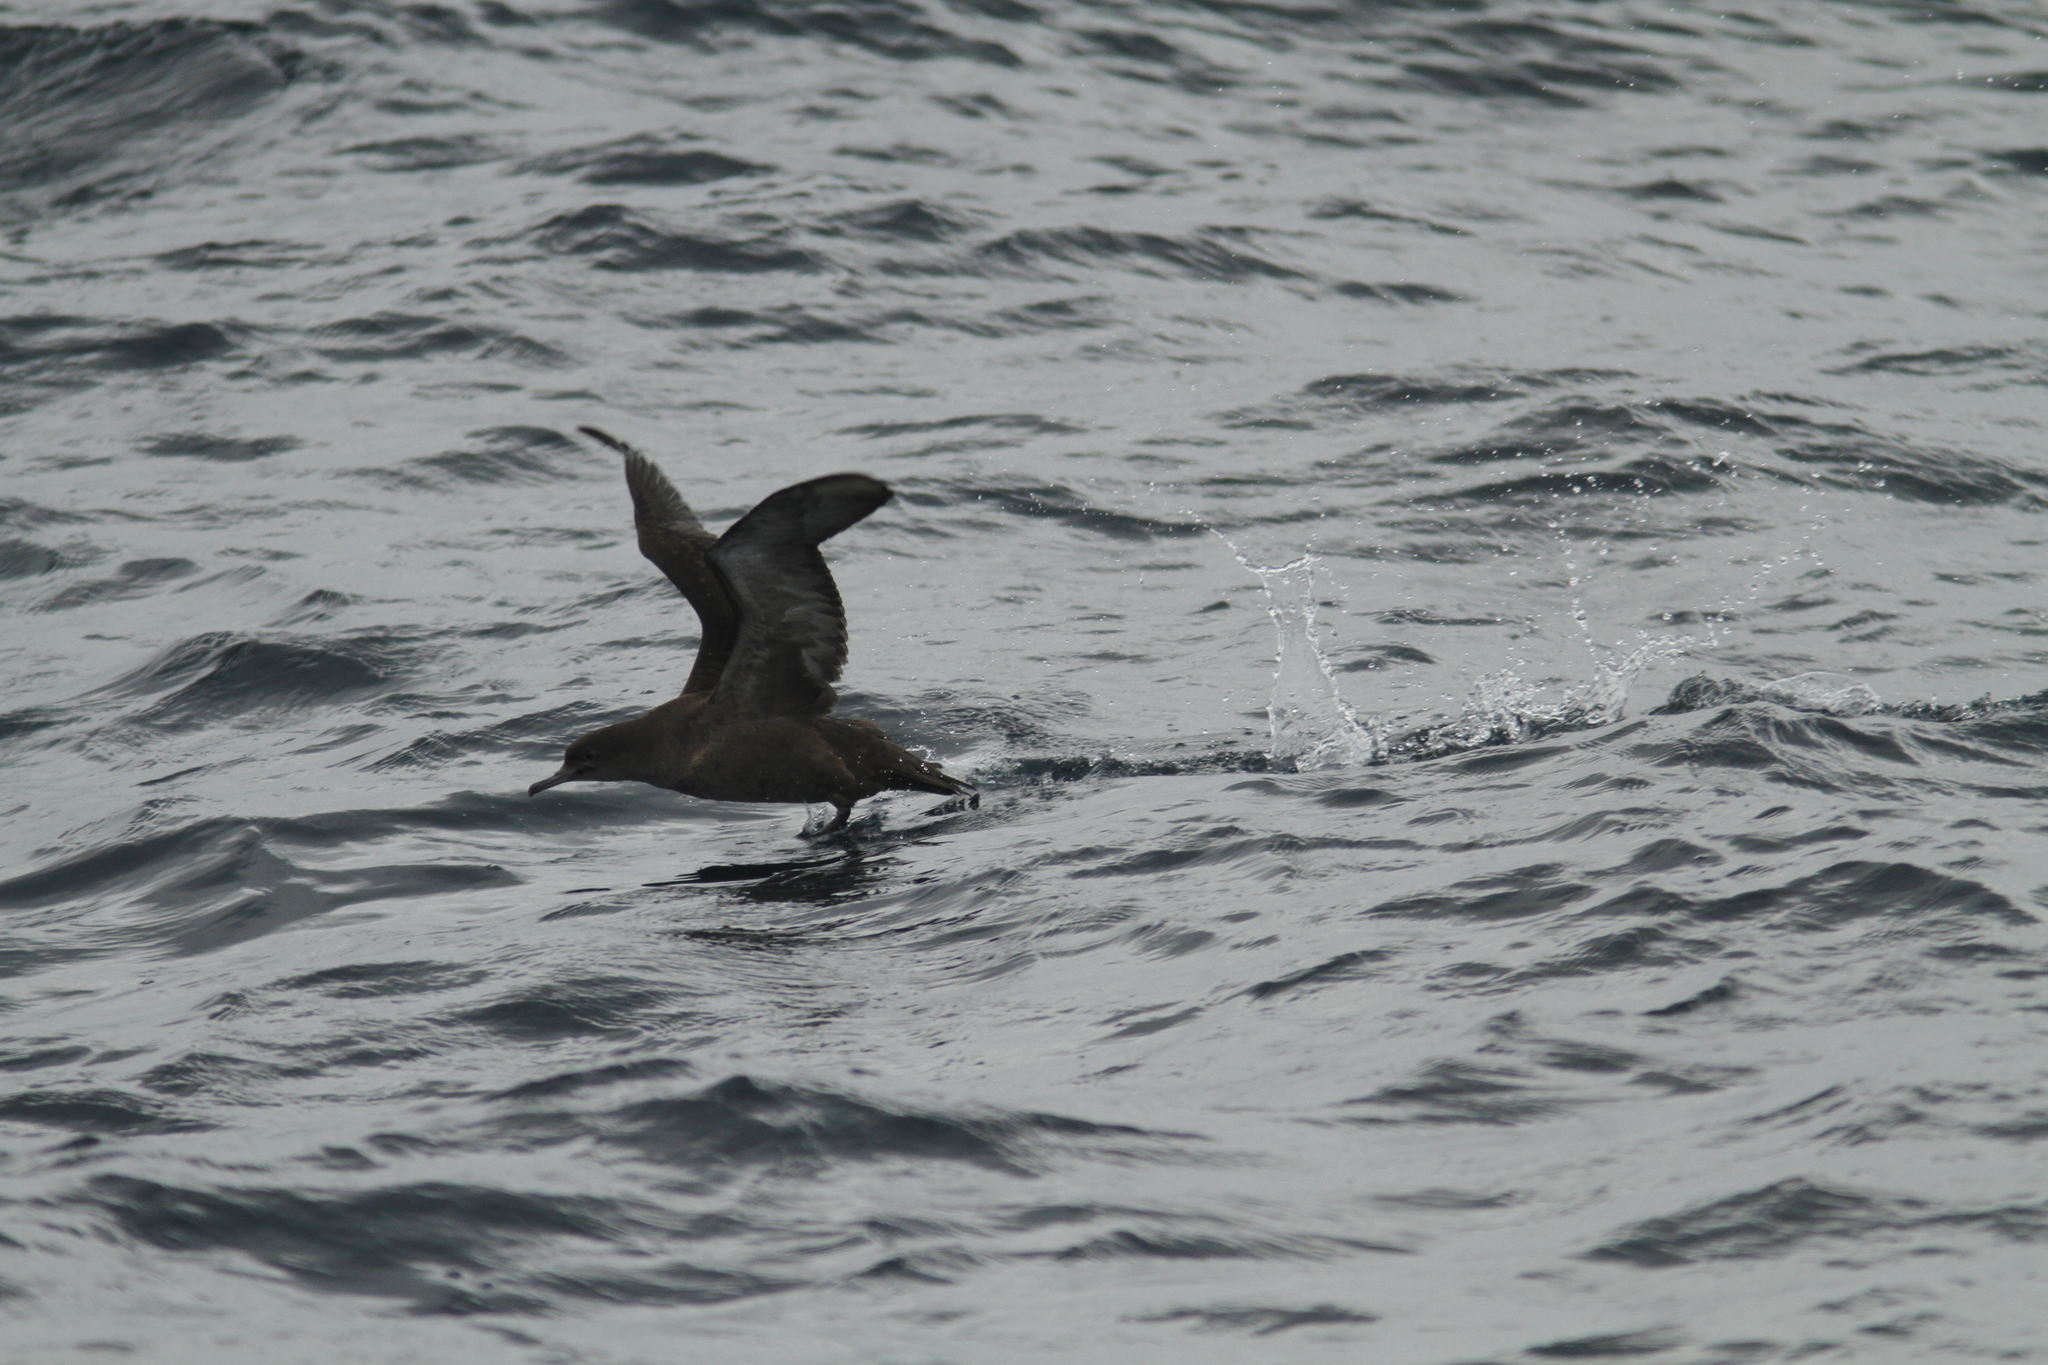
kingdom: Animalia
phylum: Chordata
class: Aves
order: Procellariiformes
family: Procellariidae
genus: Puffinus
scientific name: Puffinus griseus
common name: Sooty shearwater
